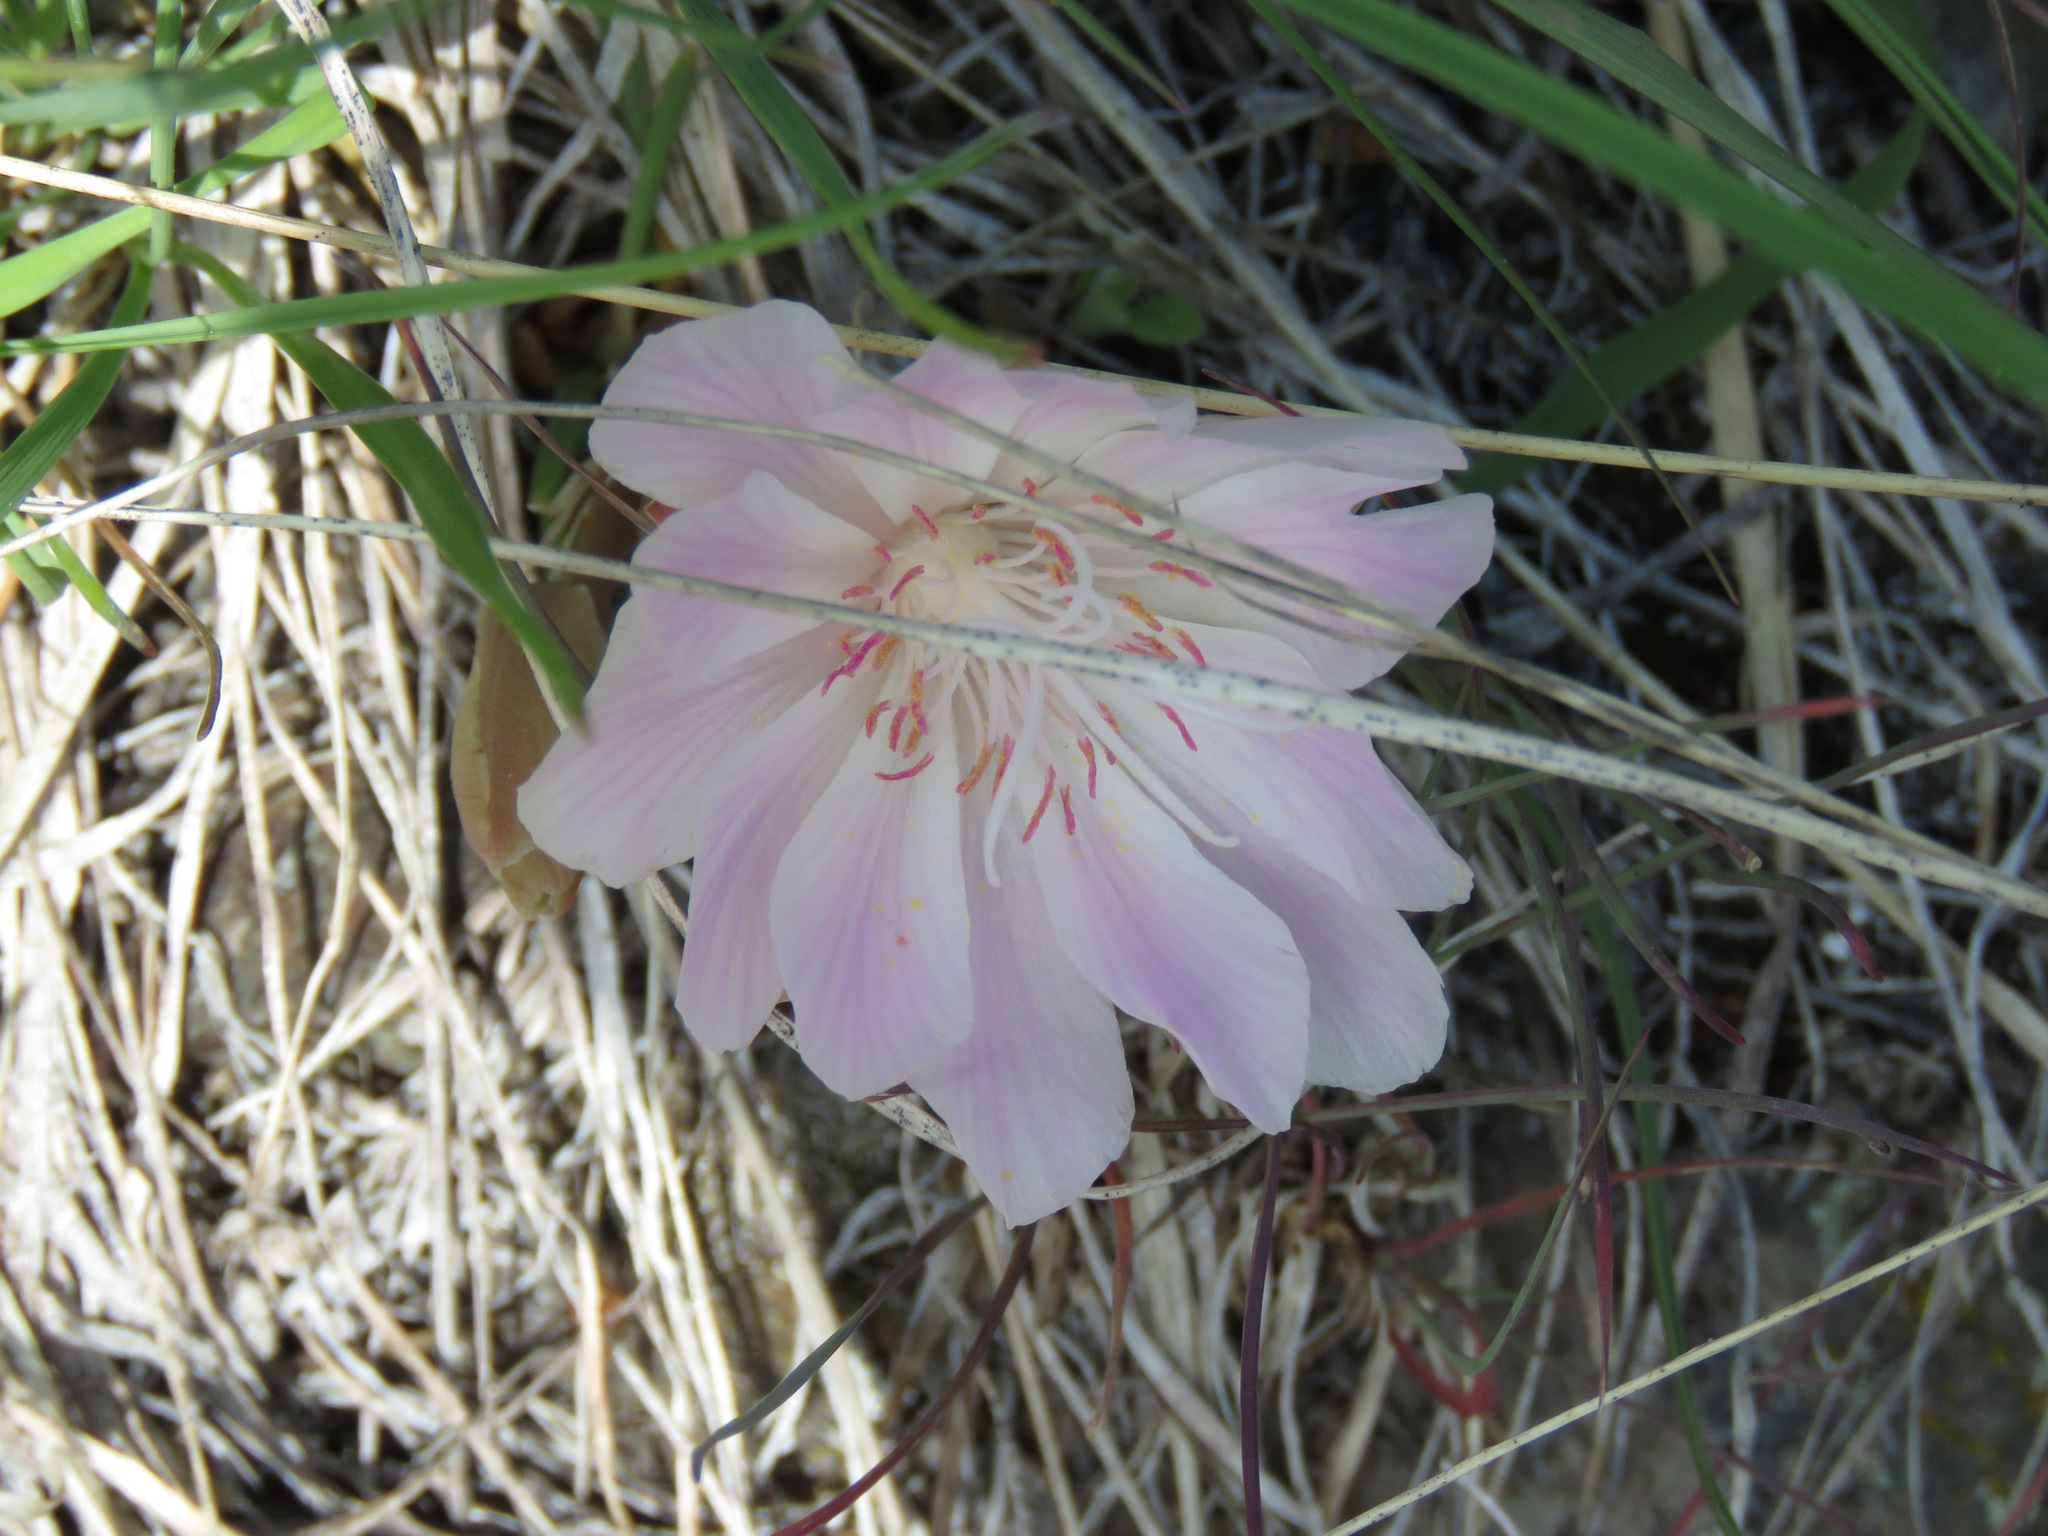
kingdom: Plantae
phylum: Tracheophyta
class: Magnoliopsida
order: Caryophyllales
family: Montiaceae
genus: Lewisia
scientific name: Lewisia rediviva
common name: Bitter-root
